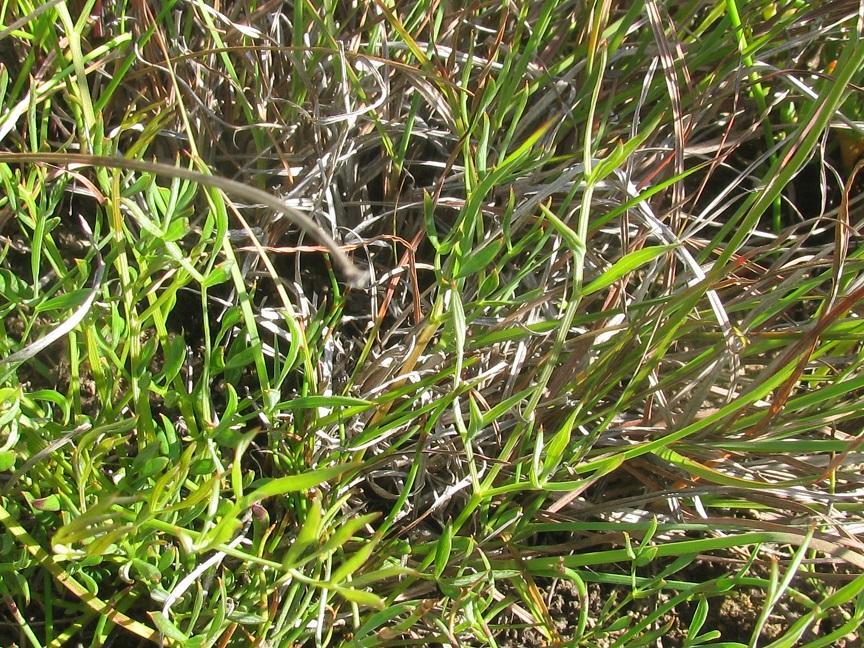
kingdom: Plantae
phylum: Tracheophyta
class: Magnoliopsida
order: Apiales
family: Apiaceae
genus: Annesorhiza
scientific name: Annesorhiza articulata
